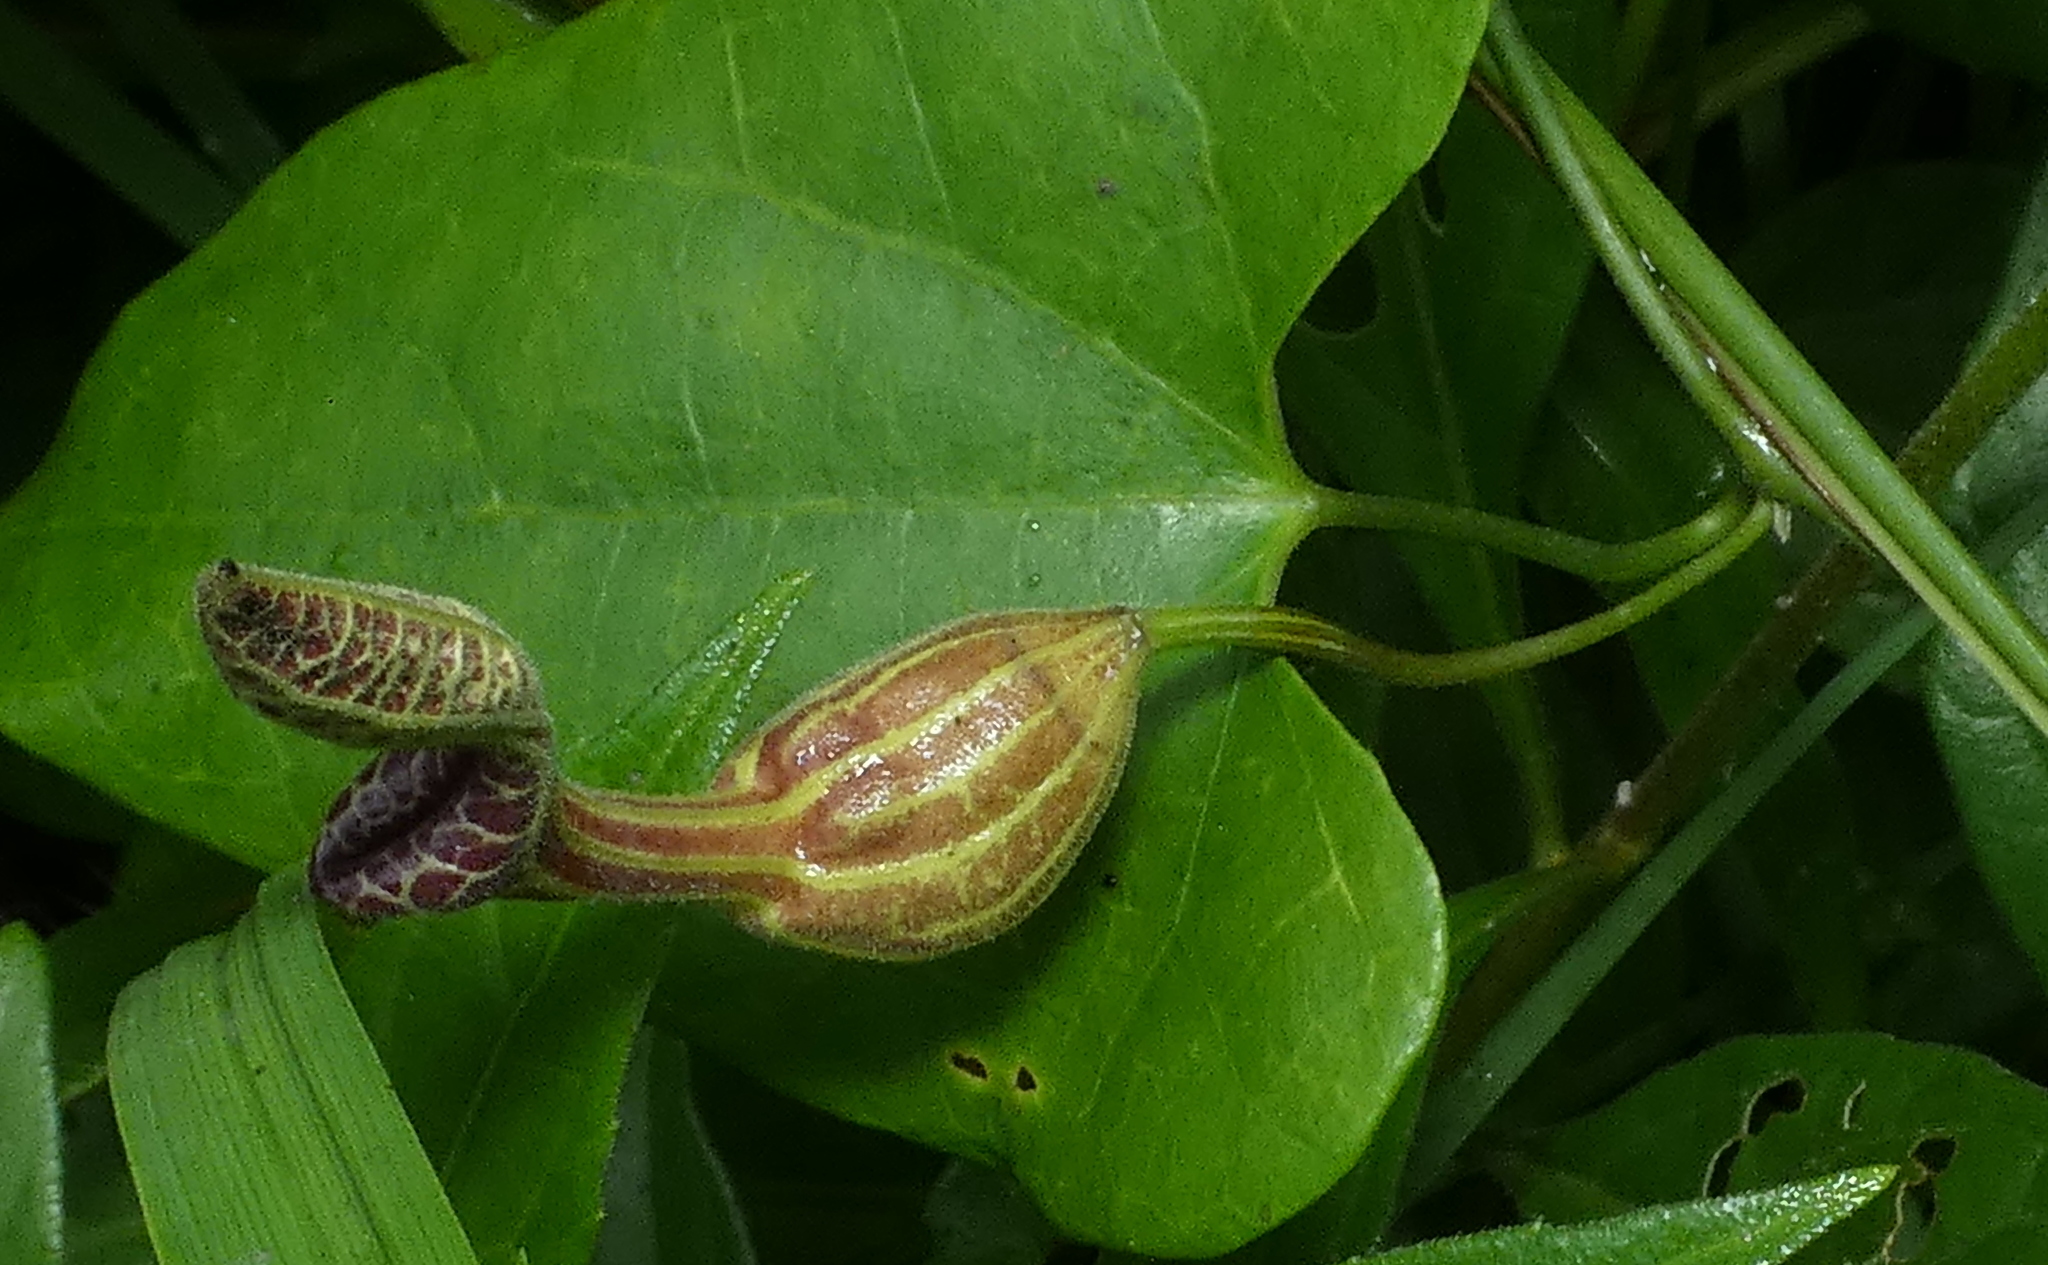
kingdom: Plantae
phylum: Tracheophyta
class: Magnoliopsida
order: Piperales
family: Aristolochiaceae
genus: Aristolochia
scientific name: Aristolochia papillaris
